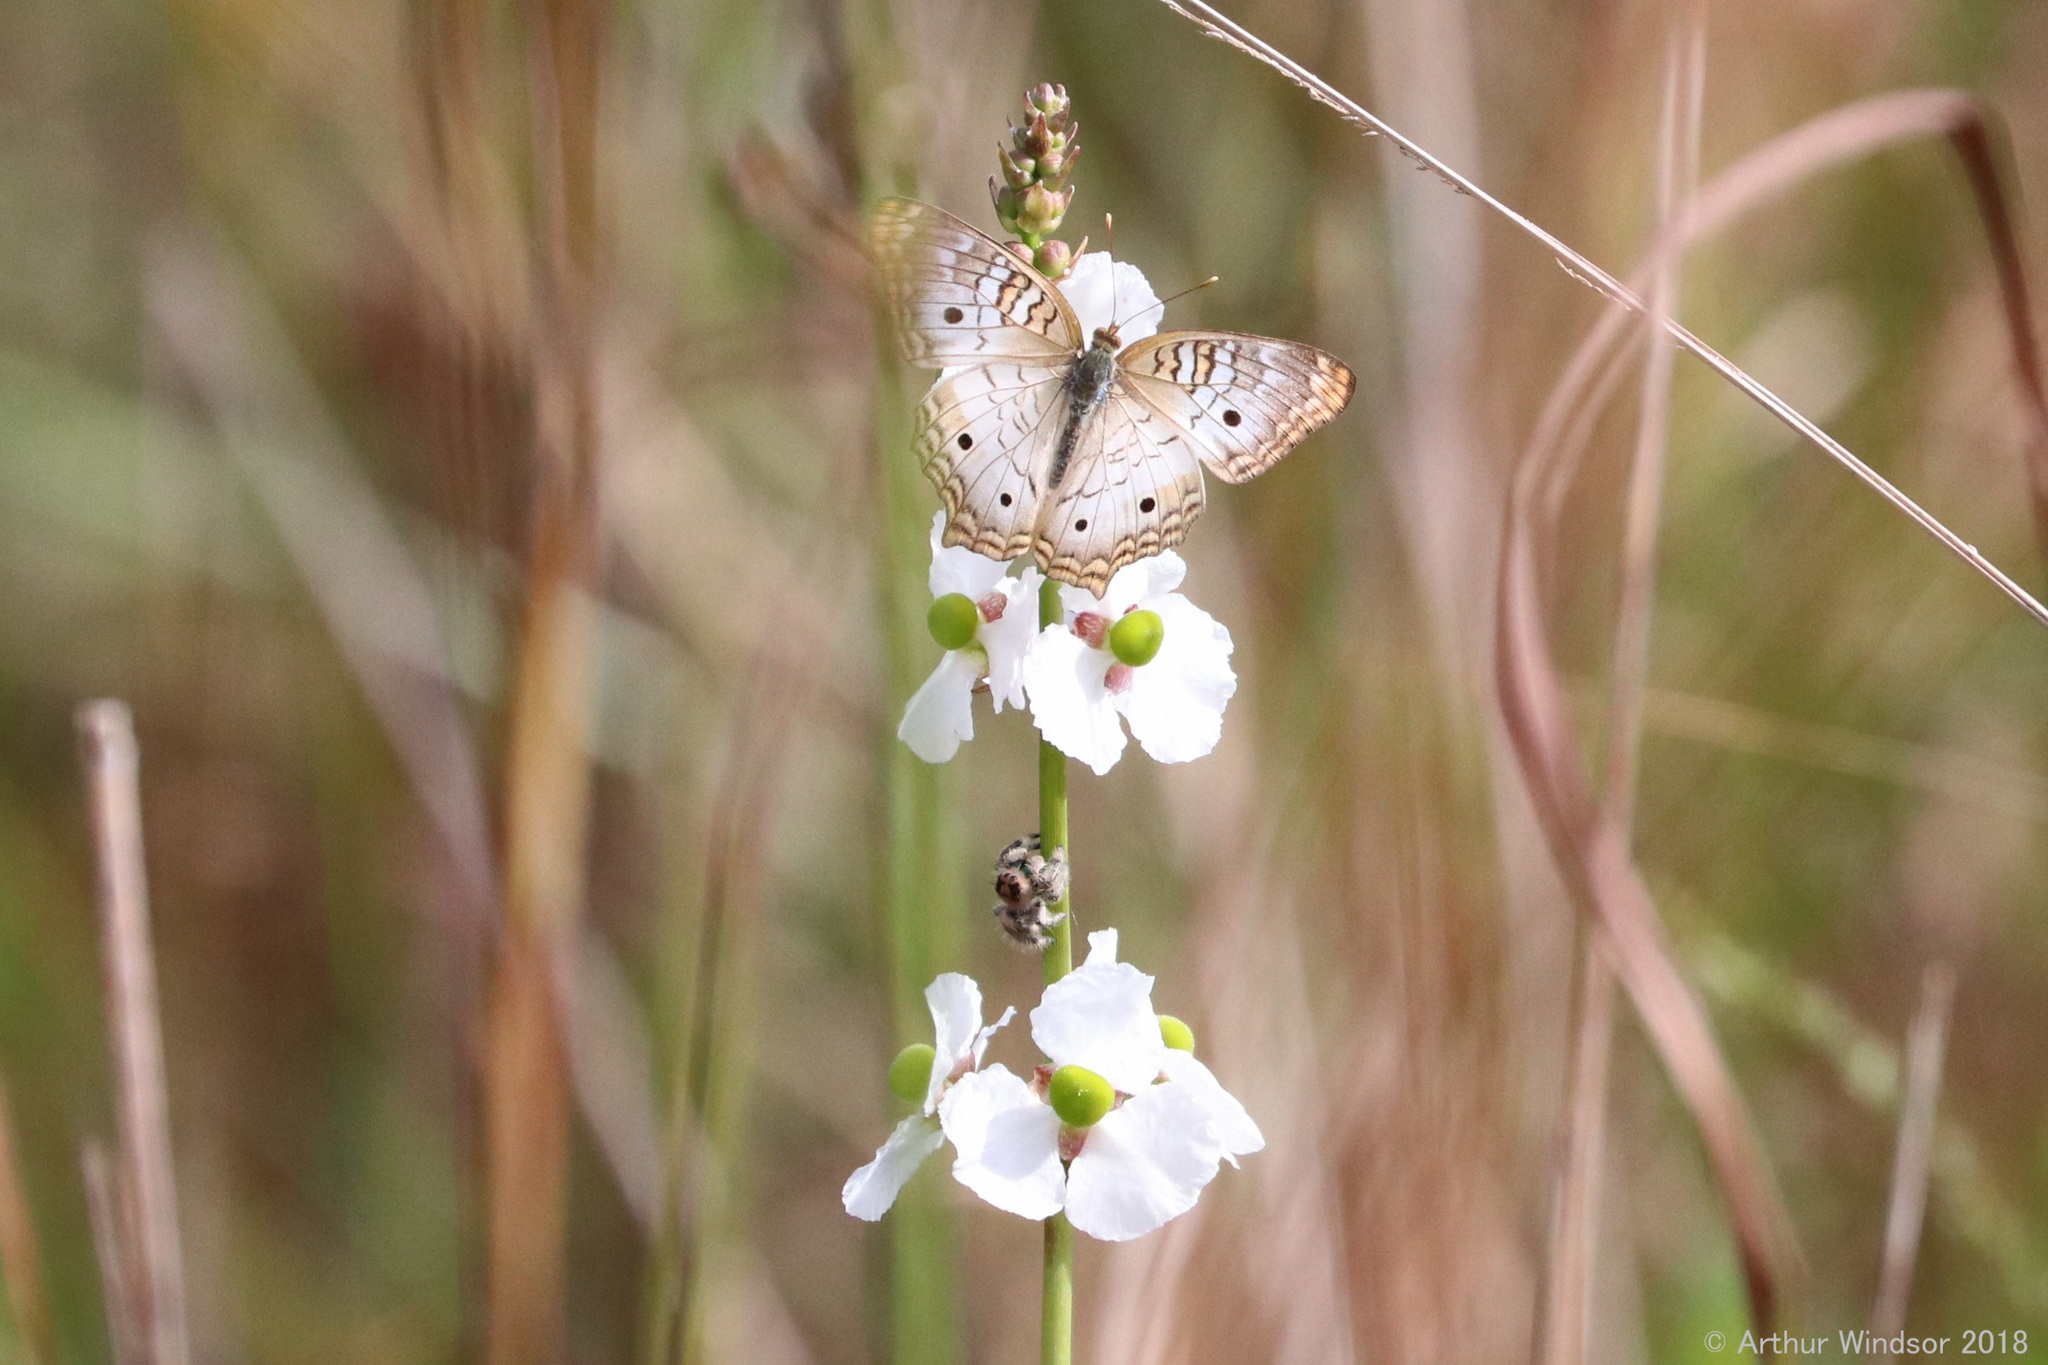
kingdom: Animalia
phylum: Arthropoda
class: Insecta
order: Lepidoptera
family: Nymphalidae
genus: Anartia
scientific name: Anartia jatrophae
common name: White peacock
